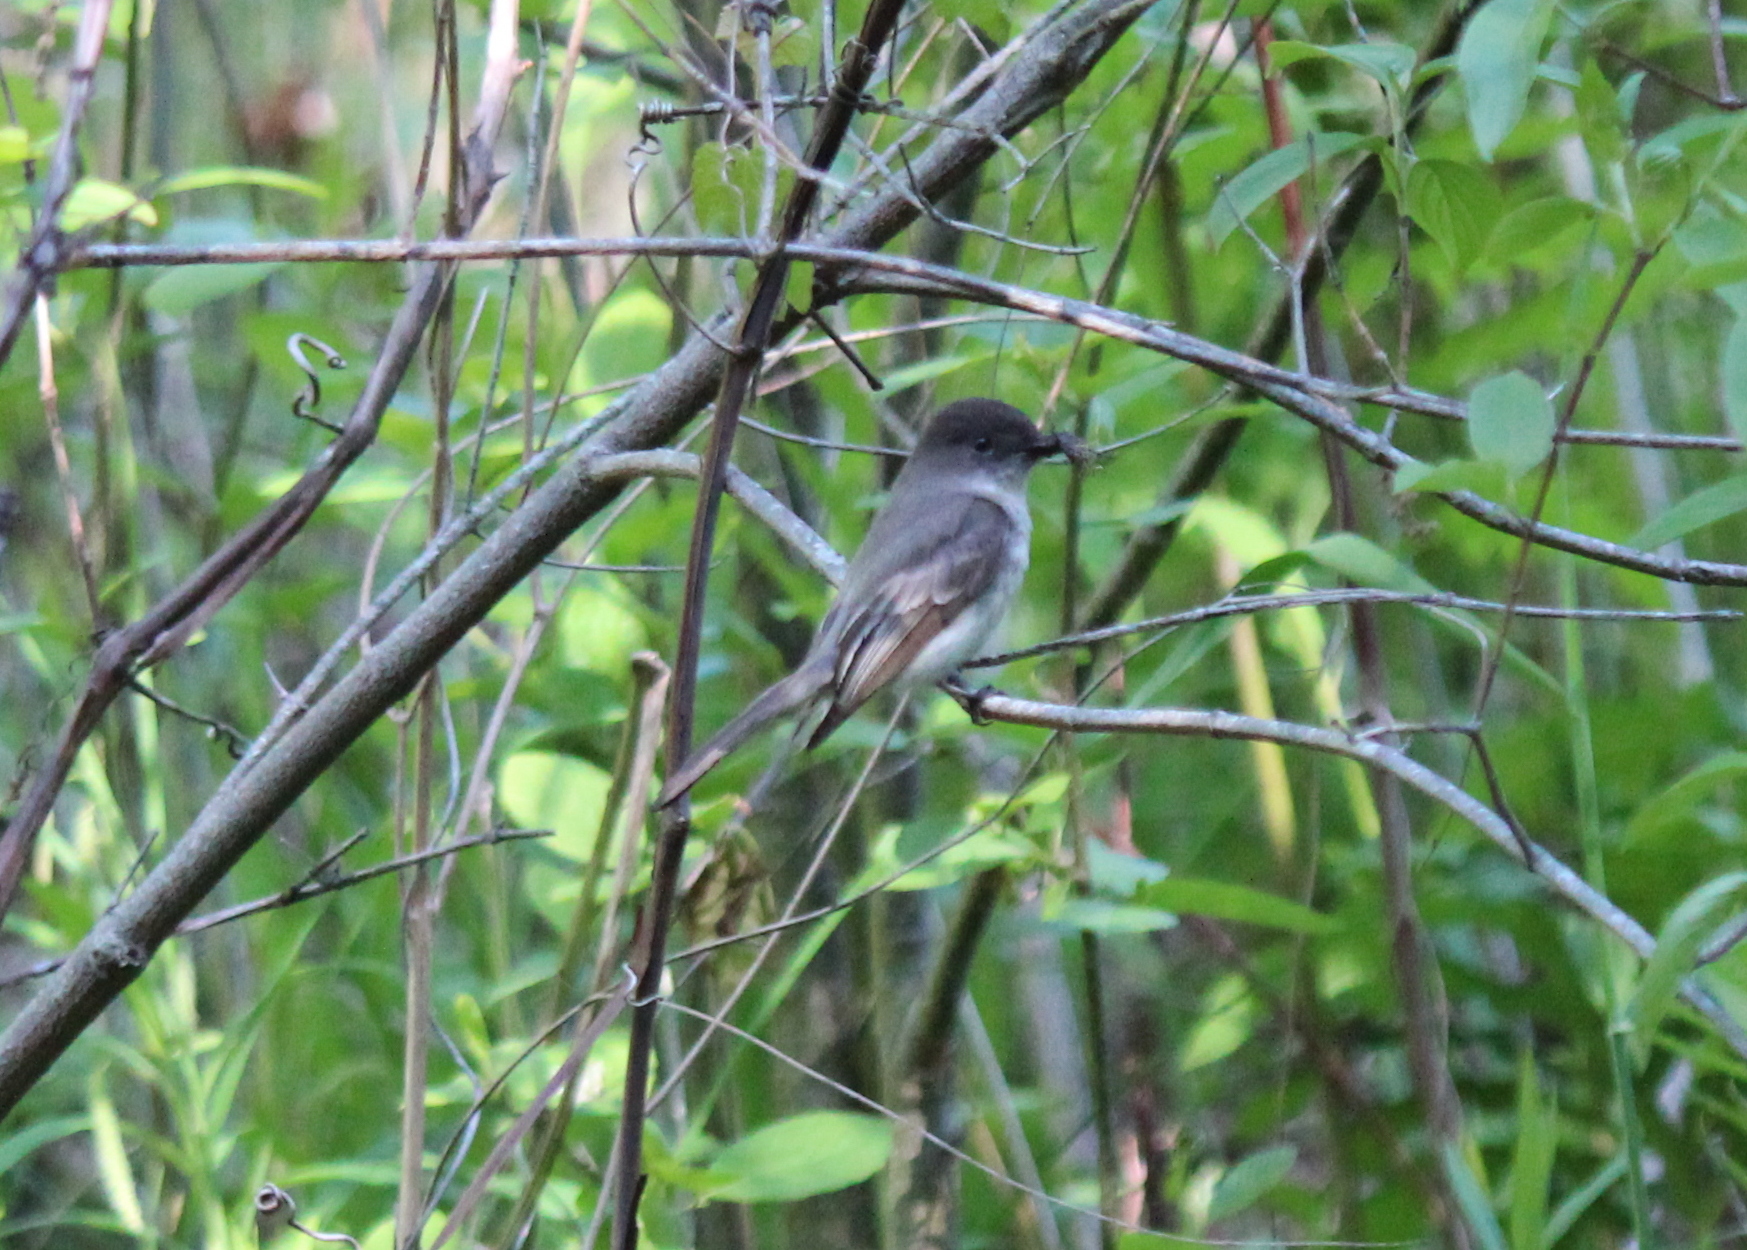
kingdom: Animalia
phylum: Chordata
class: Aves
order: Passeriformes
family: Tyrannidae
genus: Sayornis
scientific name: Sayornis phoebe
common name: Eastern phoebe
